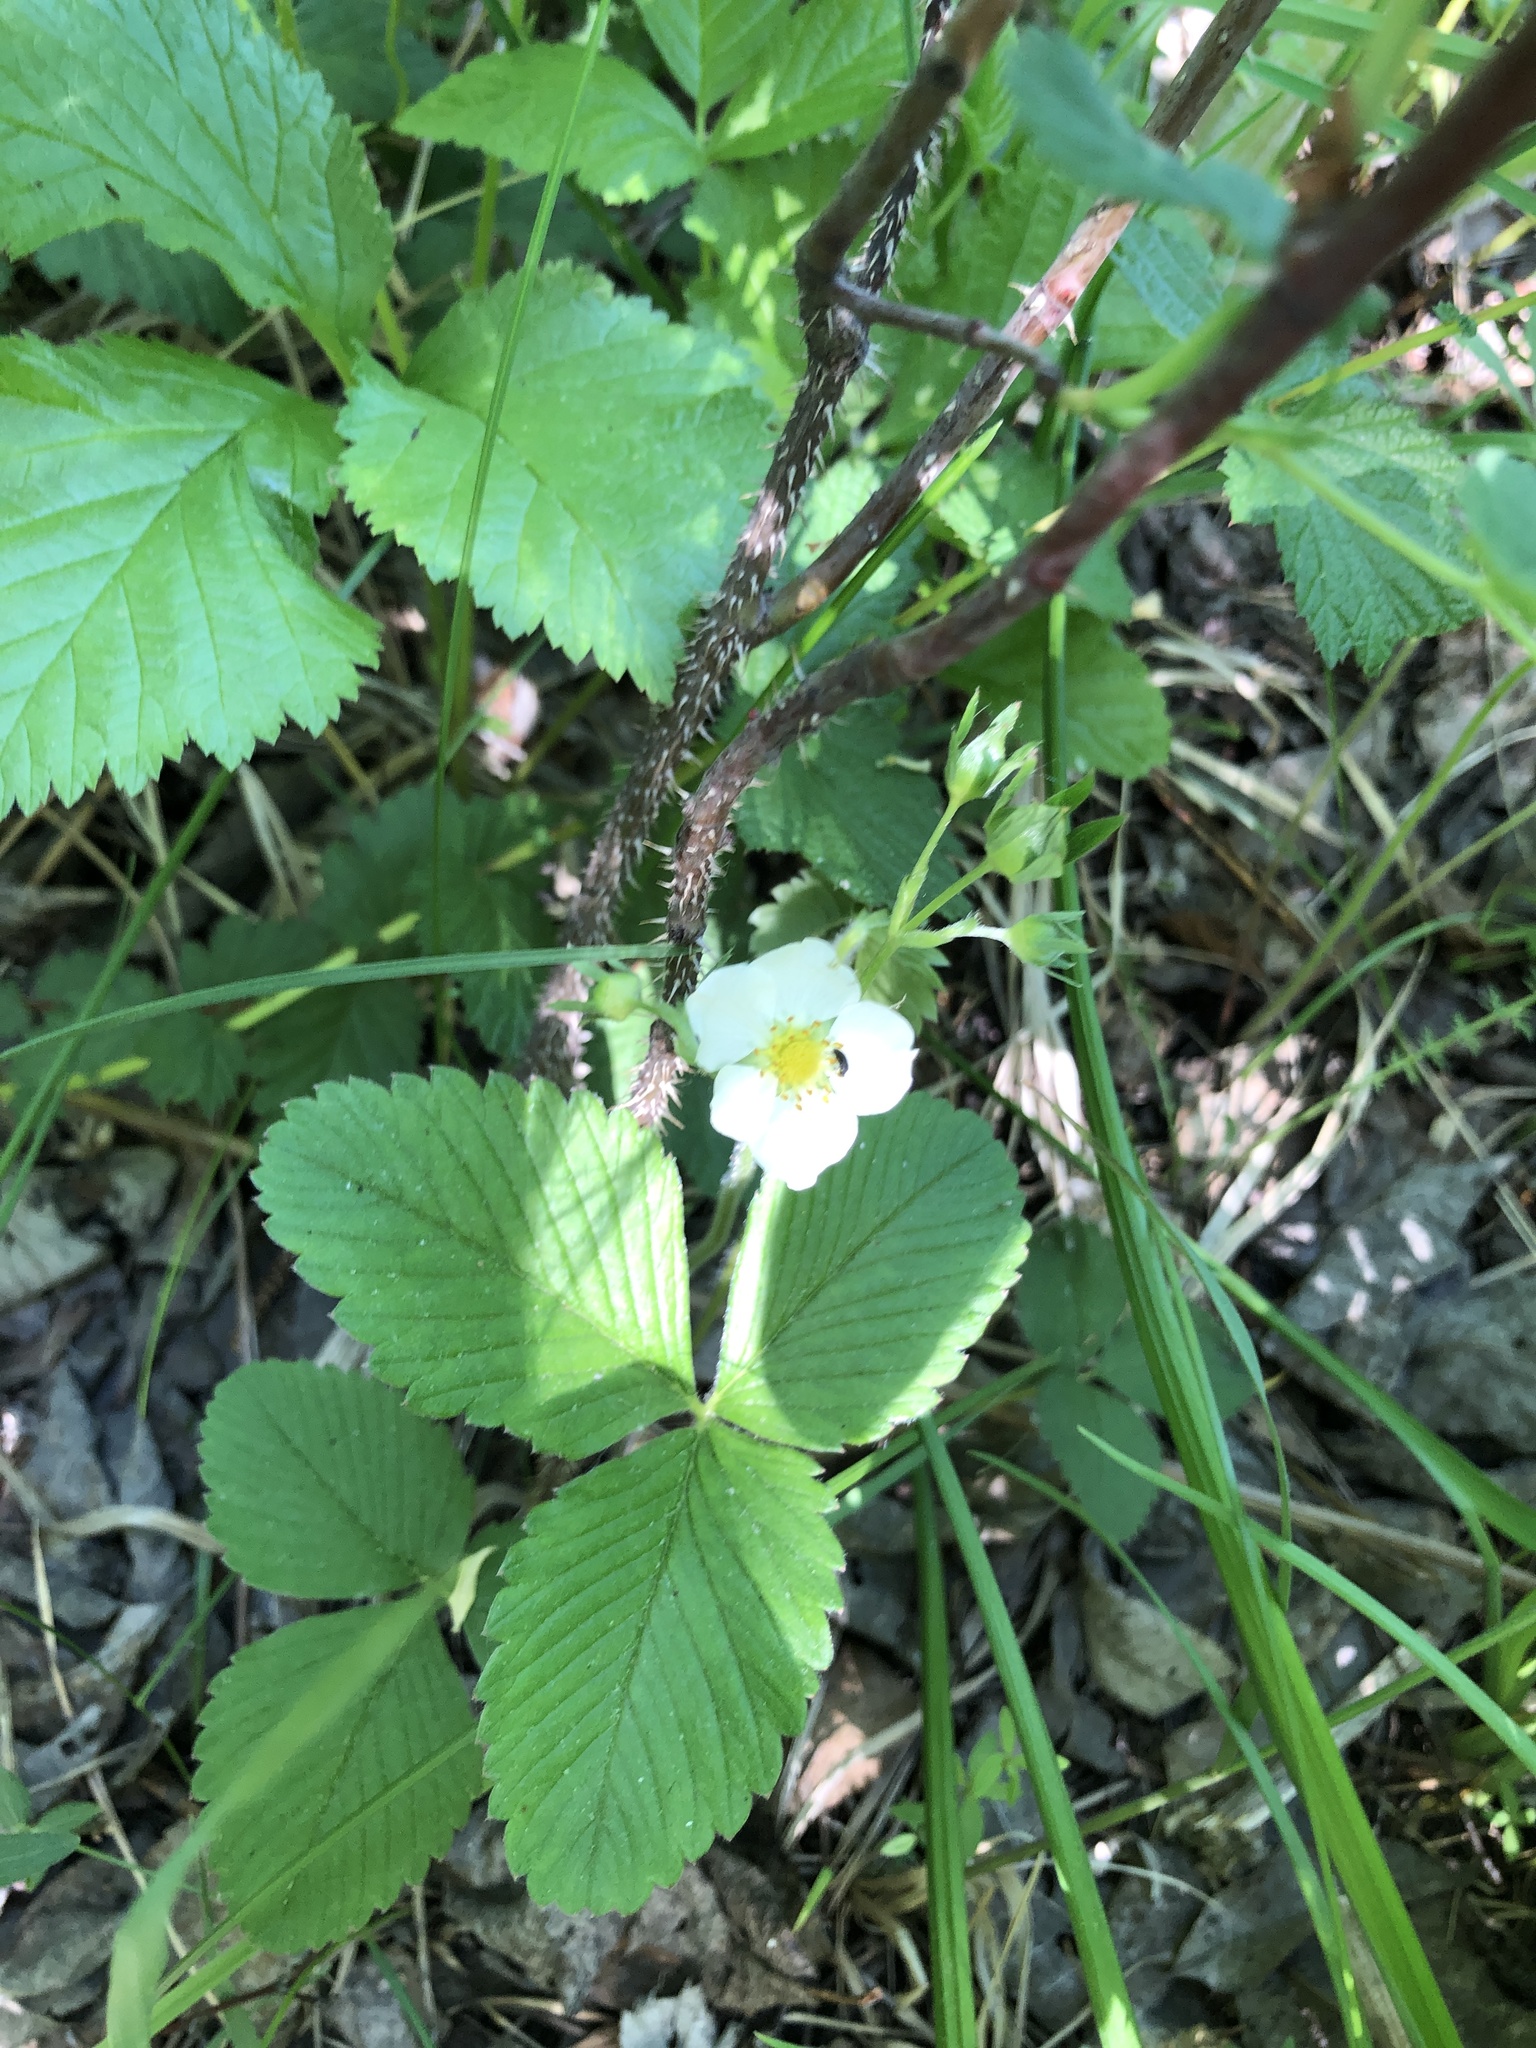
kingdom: Plantae
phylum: Tracheophyta
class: Magnoliopsida
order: Rosales
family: Rosaceae
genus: Fragaria
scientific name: Fragaria viridis
